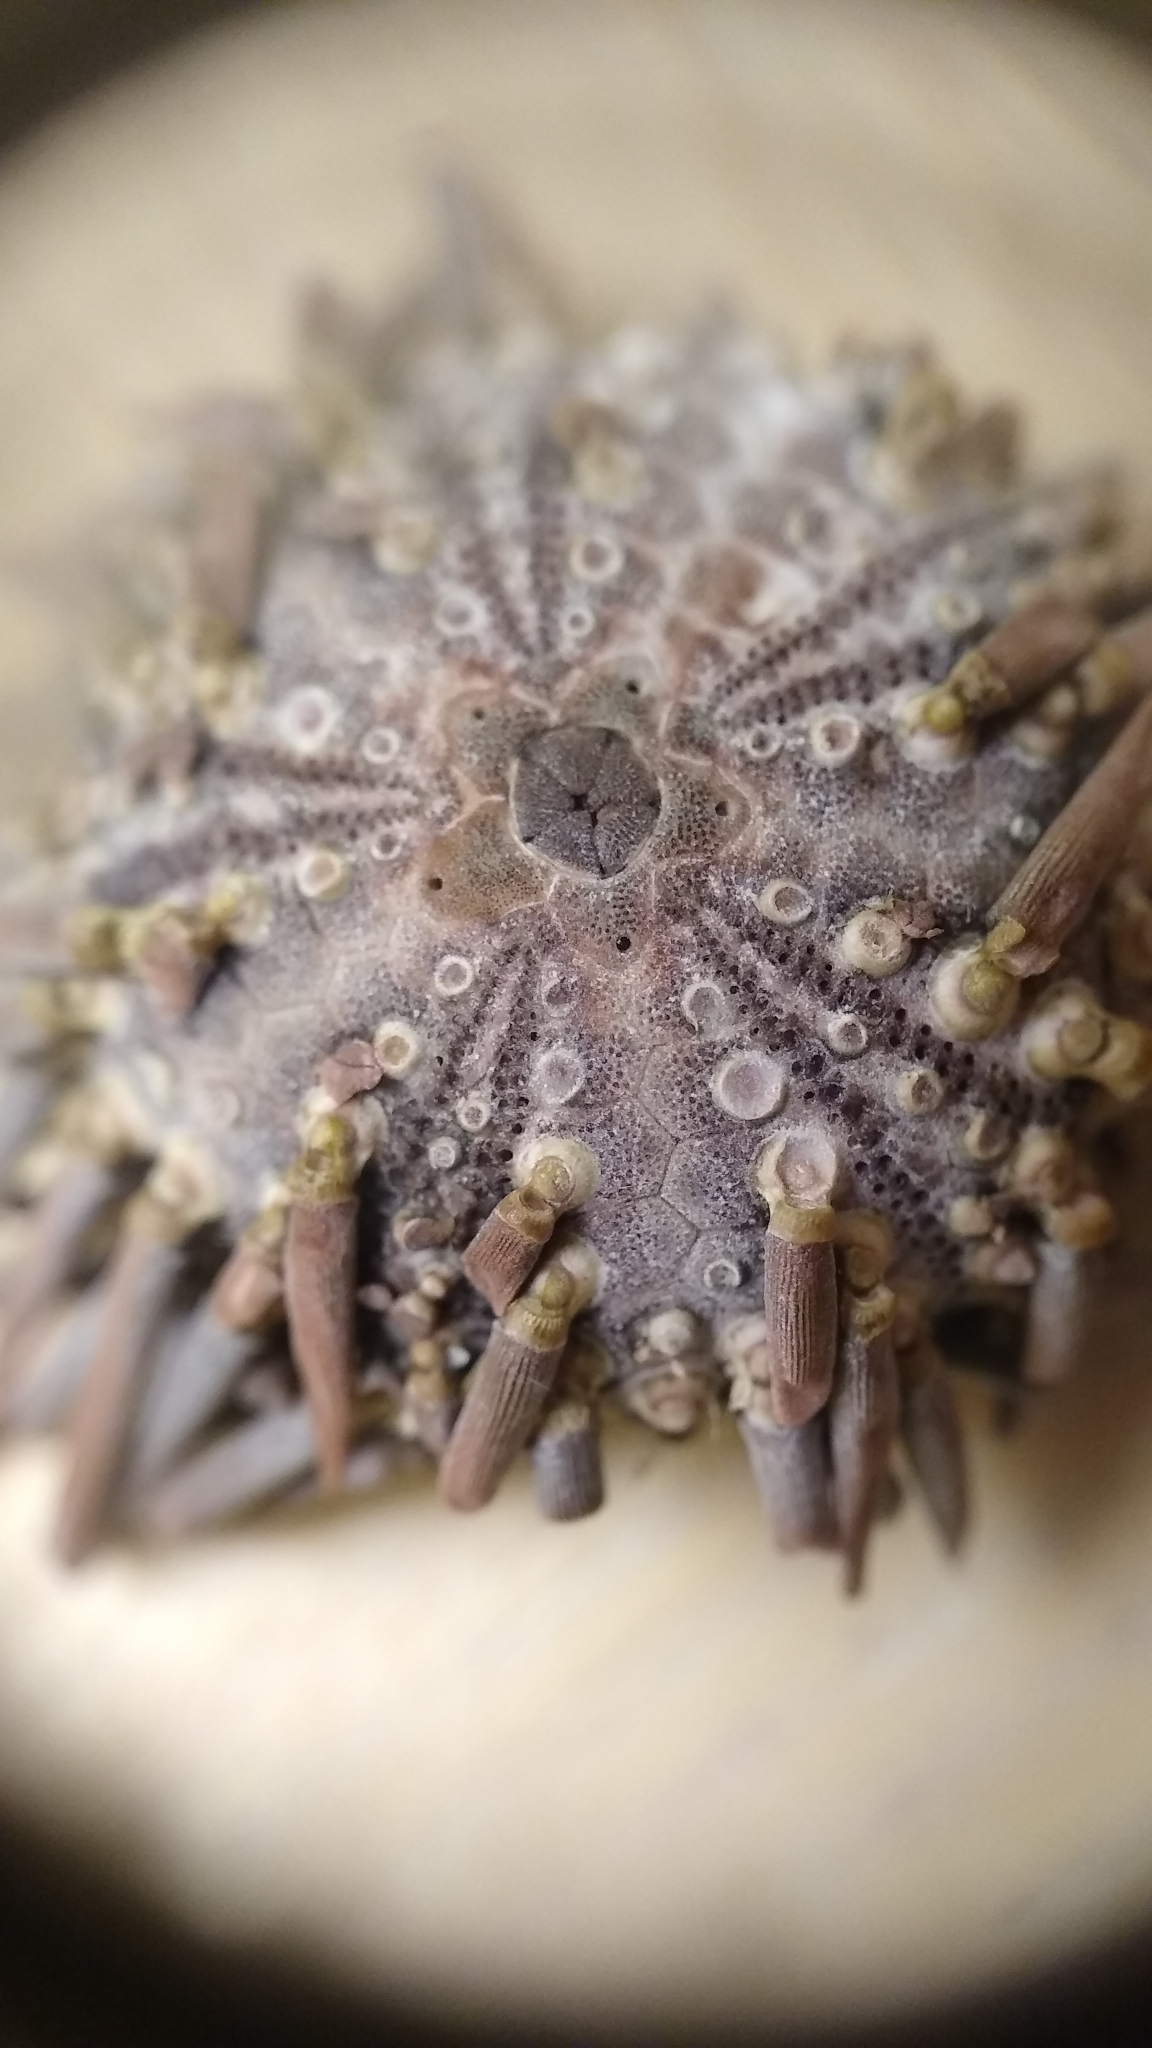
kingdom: Animalia
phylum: Echinodermata
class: Echinoidea
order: Arbacioida
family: Arbaciidae
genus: Arbacia
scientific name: Arbacia punctulata
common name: Purple-spined sea urchin
